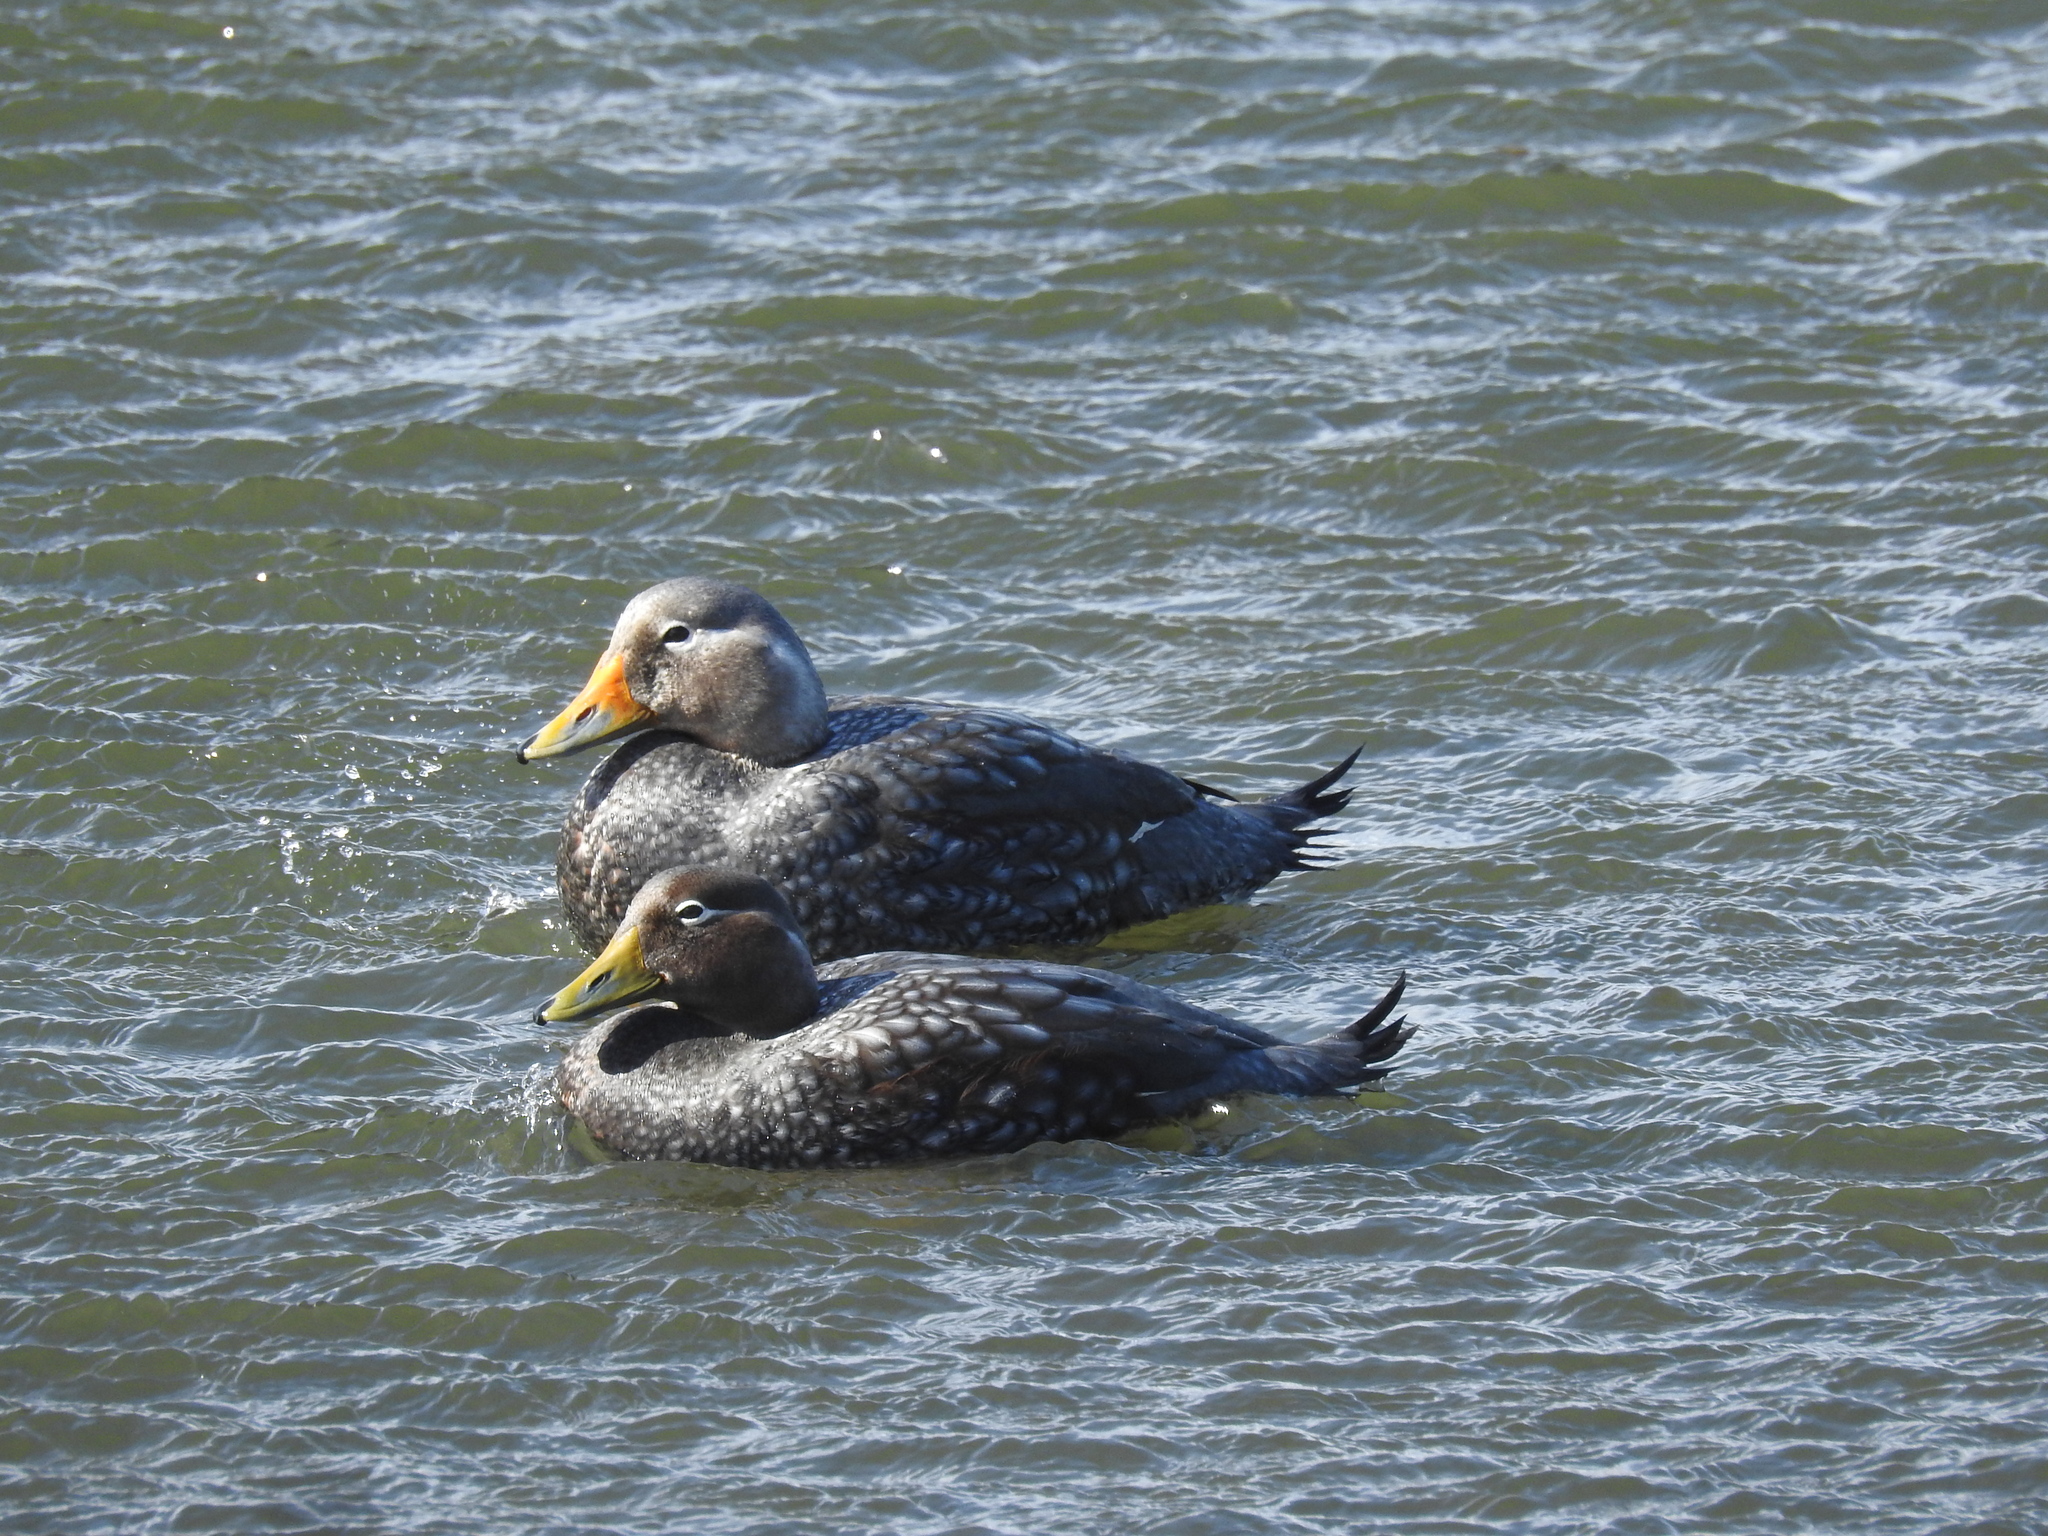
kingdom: Animalia
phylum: Chordata
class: Aves
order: Anseriformes
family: Anatidae
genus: Tachyeres
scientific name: Tachyeres patachonicus
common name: Flying steamer duck
